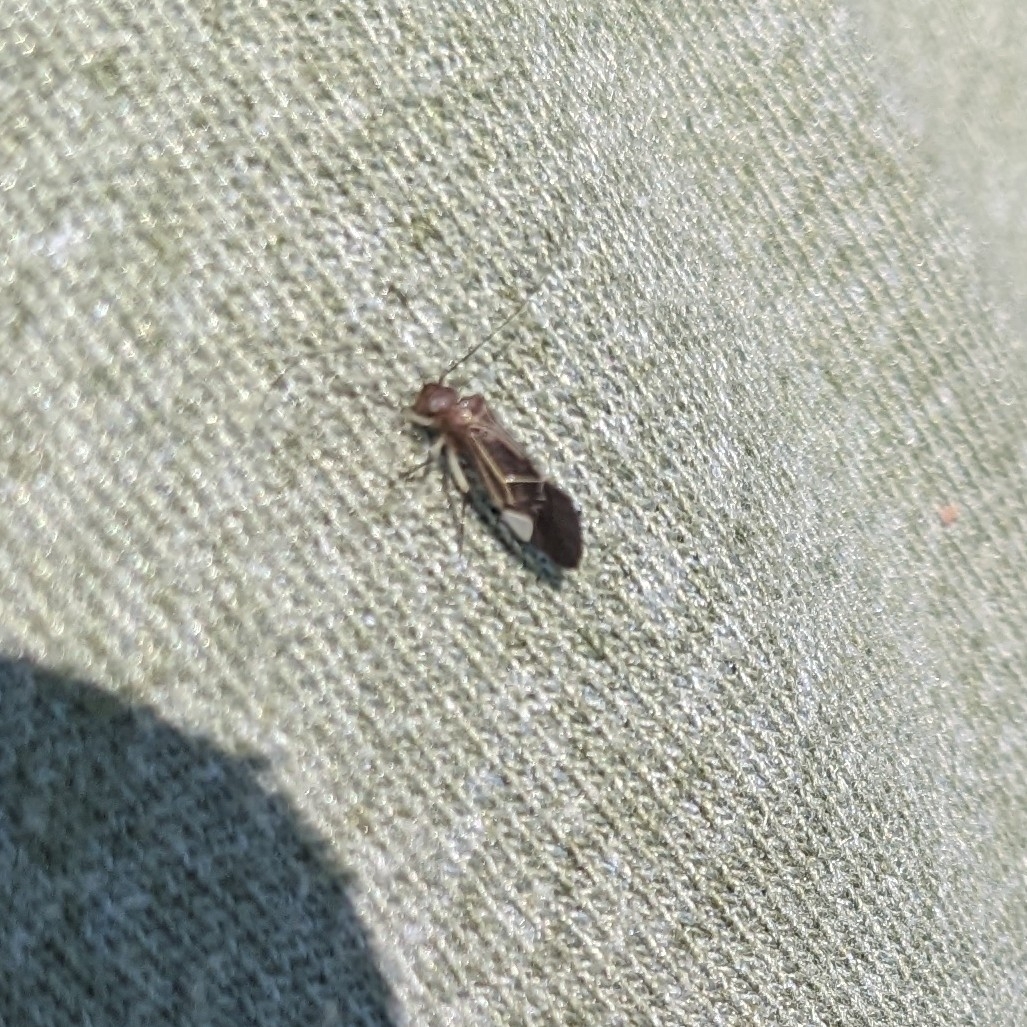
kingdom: Animalia
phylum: Arthropoda
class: Insecta
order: Psocodea
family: Psocidae
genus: Cerastipsocus
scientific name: Cerastipsocus venosus
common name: Tree cattle
